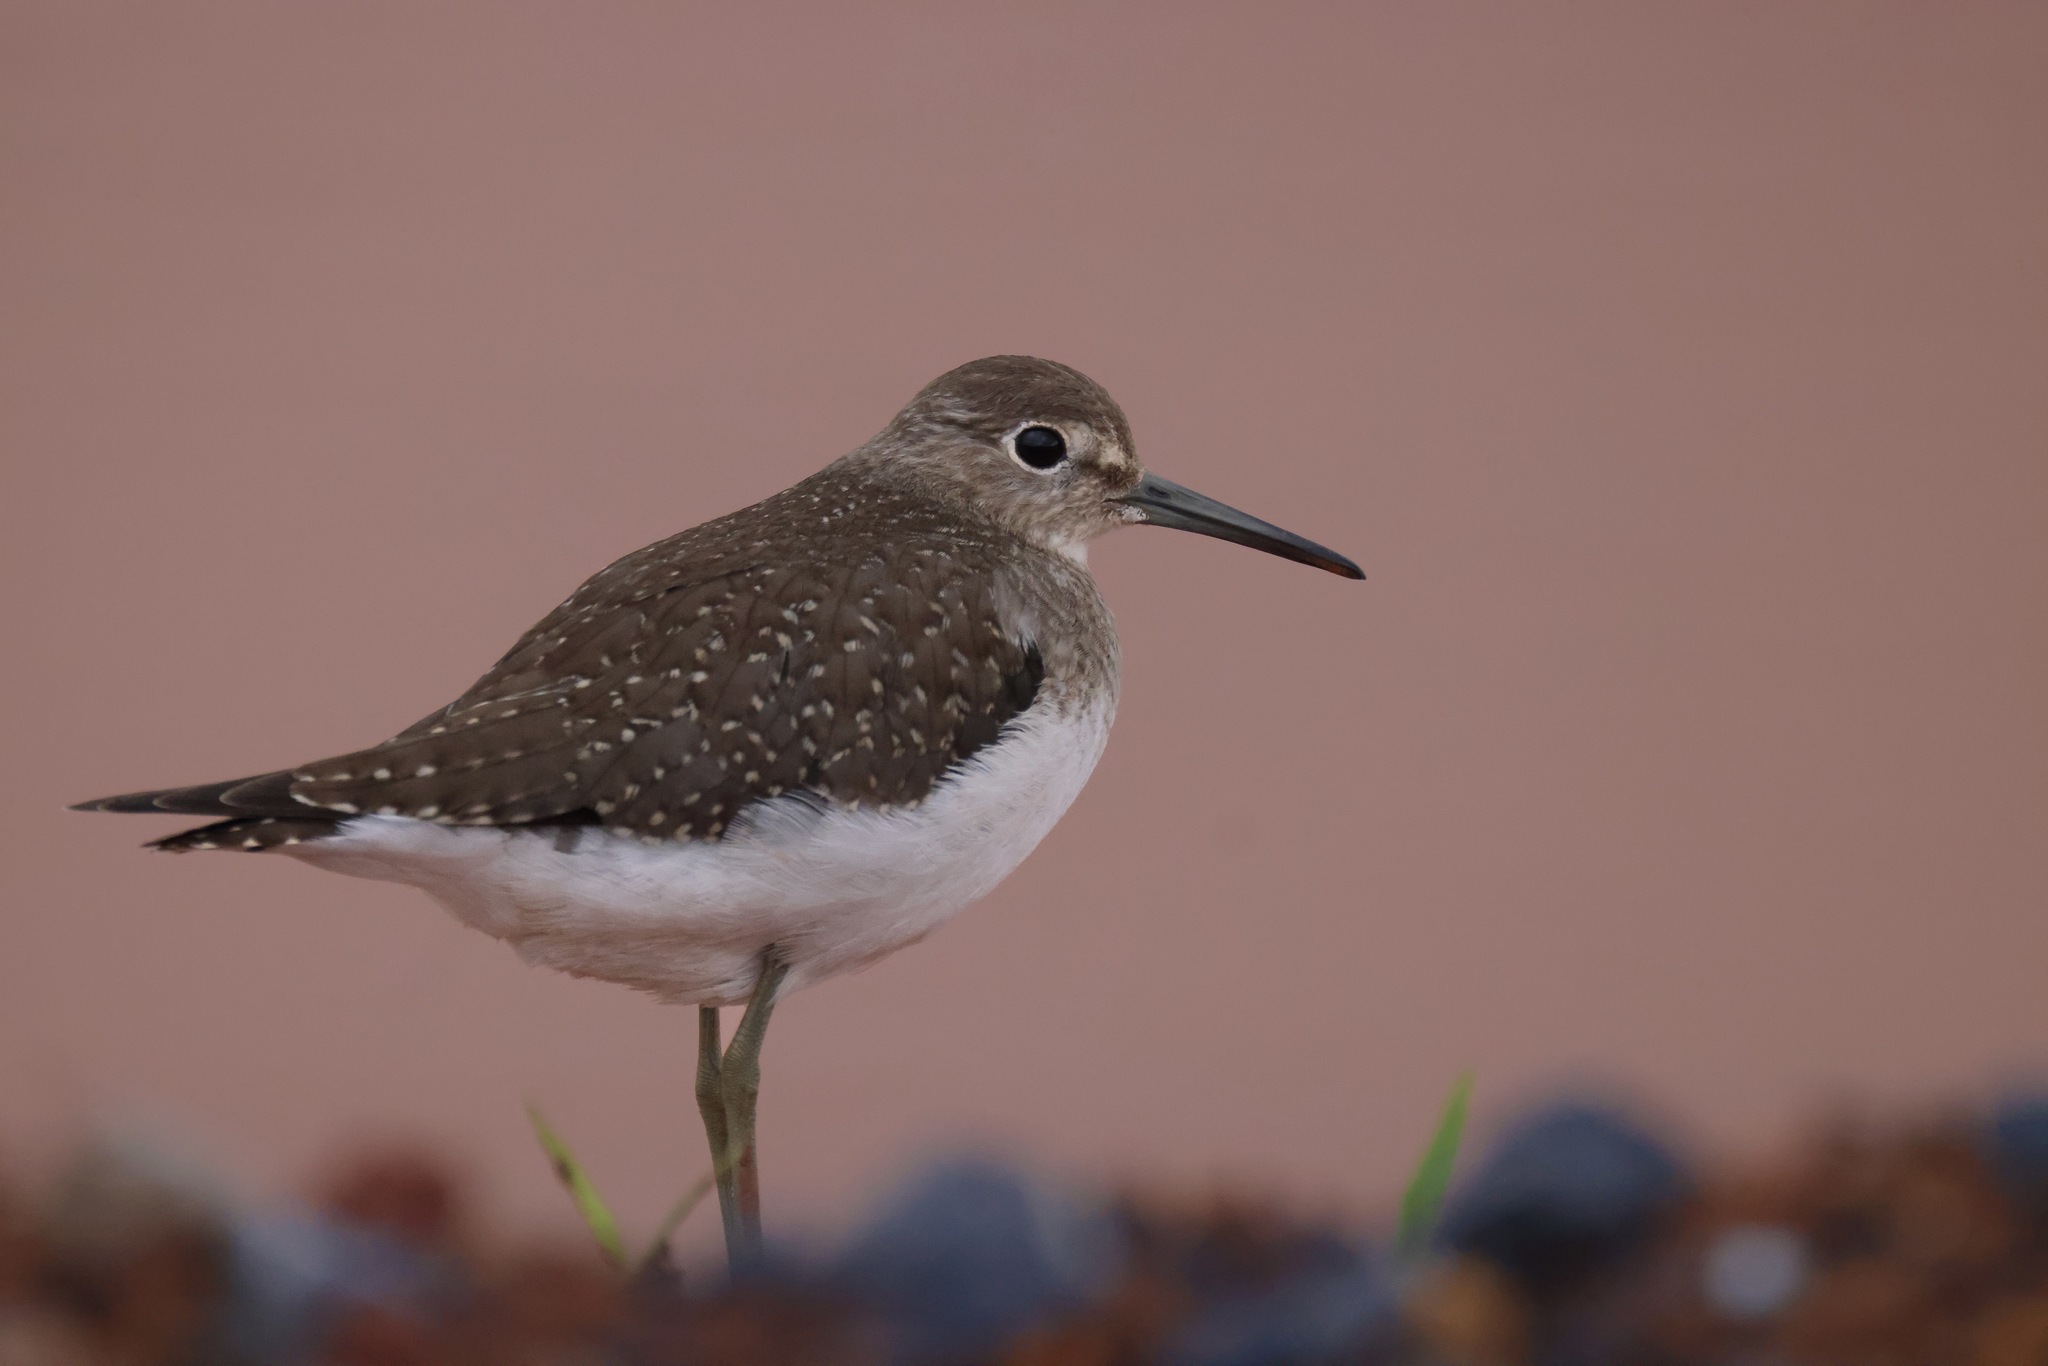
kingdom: Animalia
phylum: Chordata
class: Aves
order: Charadriiformes
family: Scolopacidae
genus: Tringa
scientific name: Tringa solitaria
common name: Solitary sandpiper
